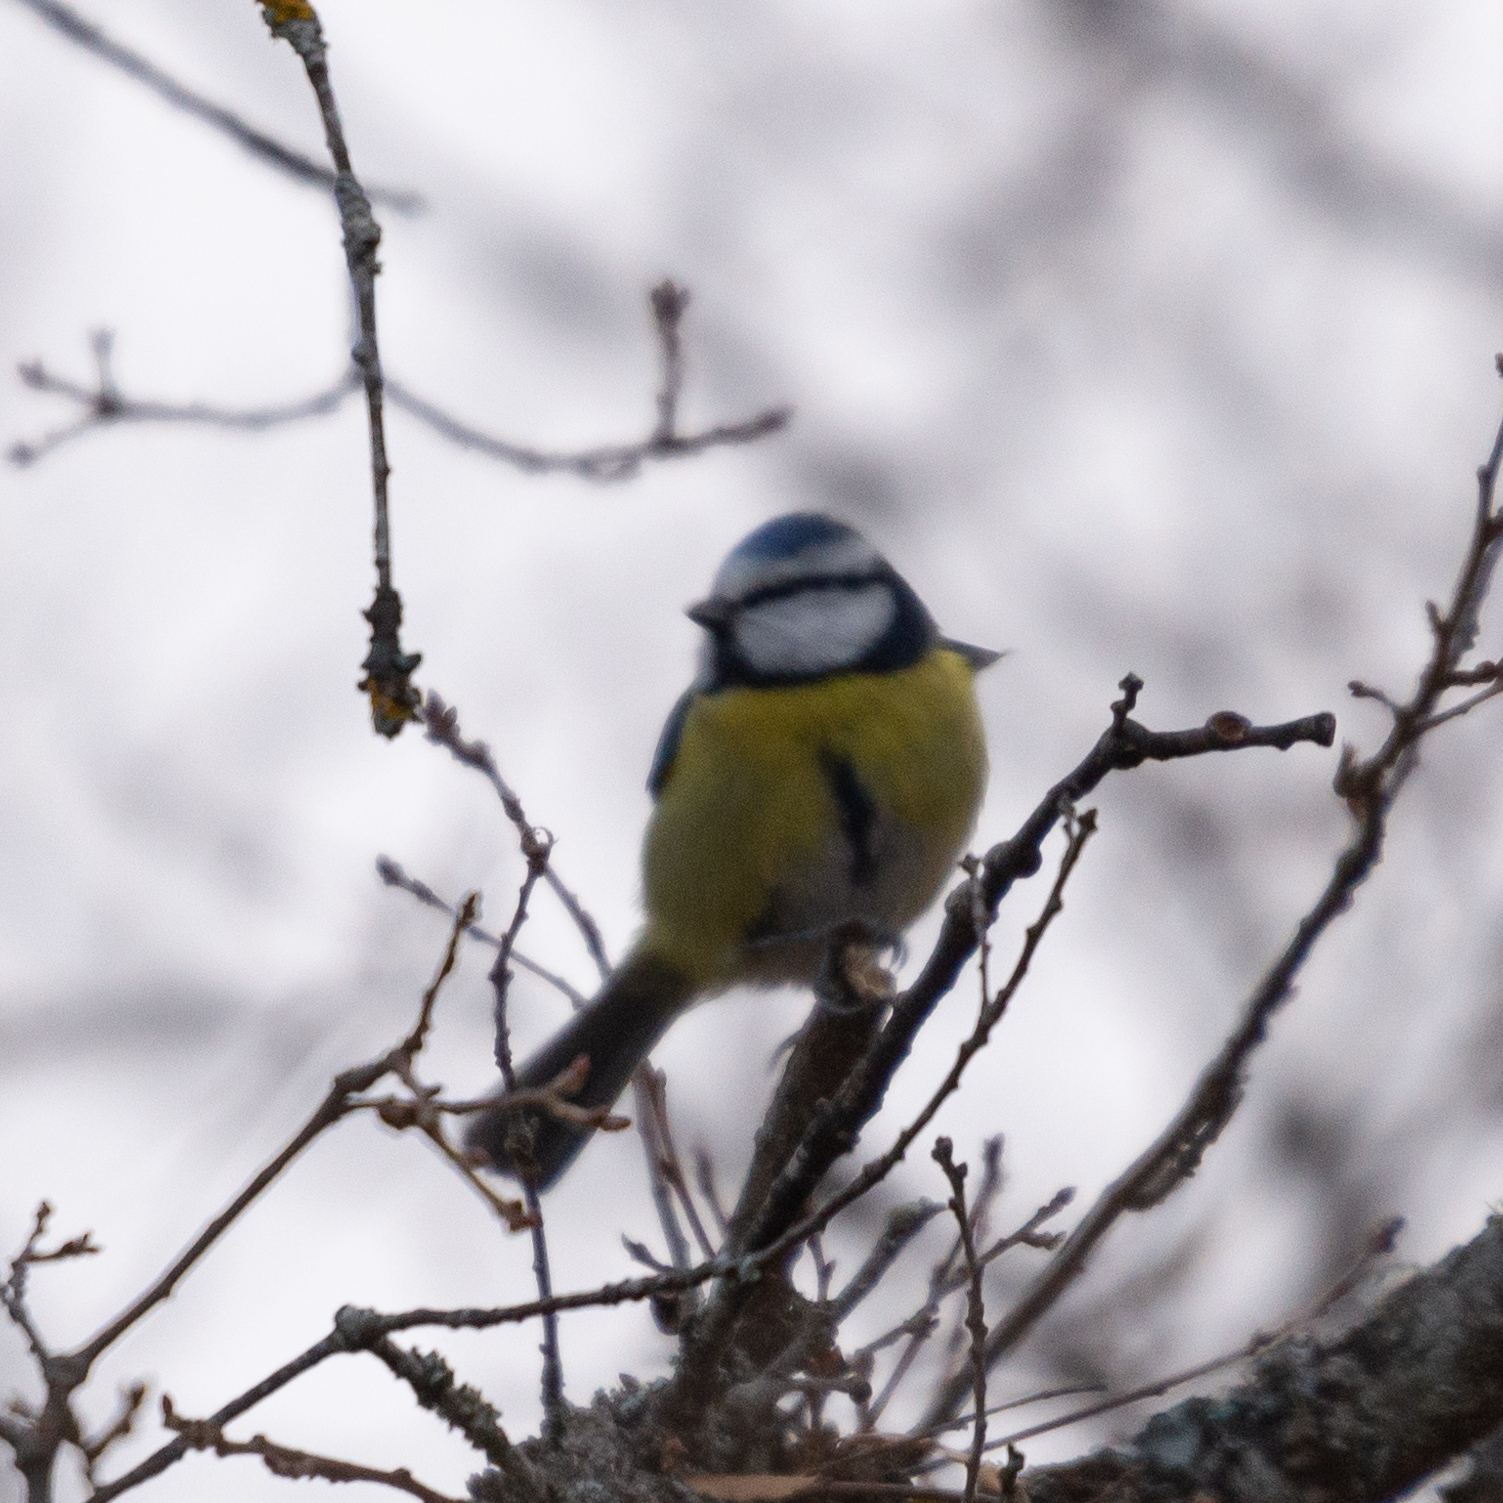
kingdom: Animalia
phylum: Chordata
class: Aves
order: Passeriformes
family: Paridae
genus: Cyanistes
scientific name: Cyanistes caeruleus
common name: Eurasian blue tit
